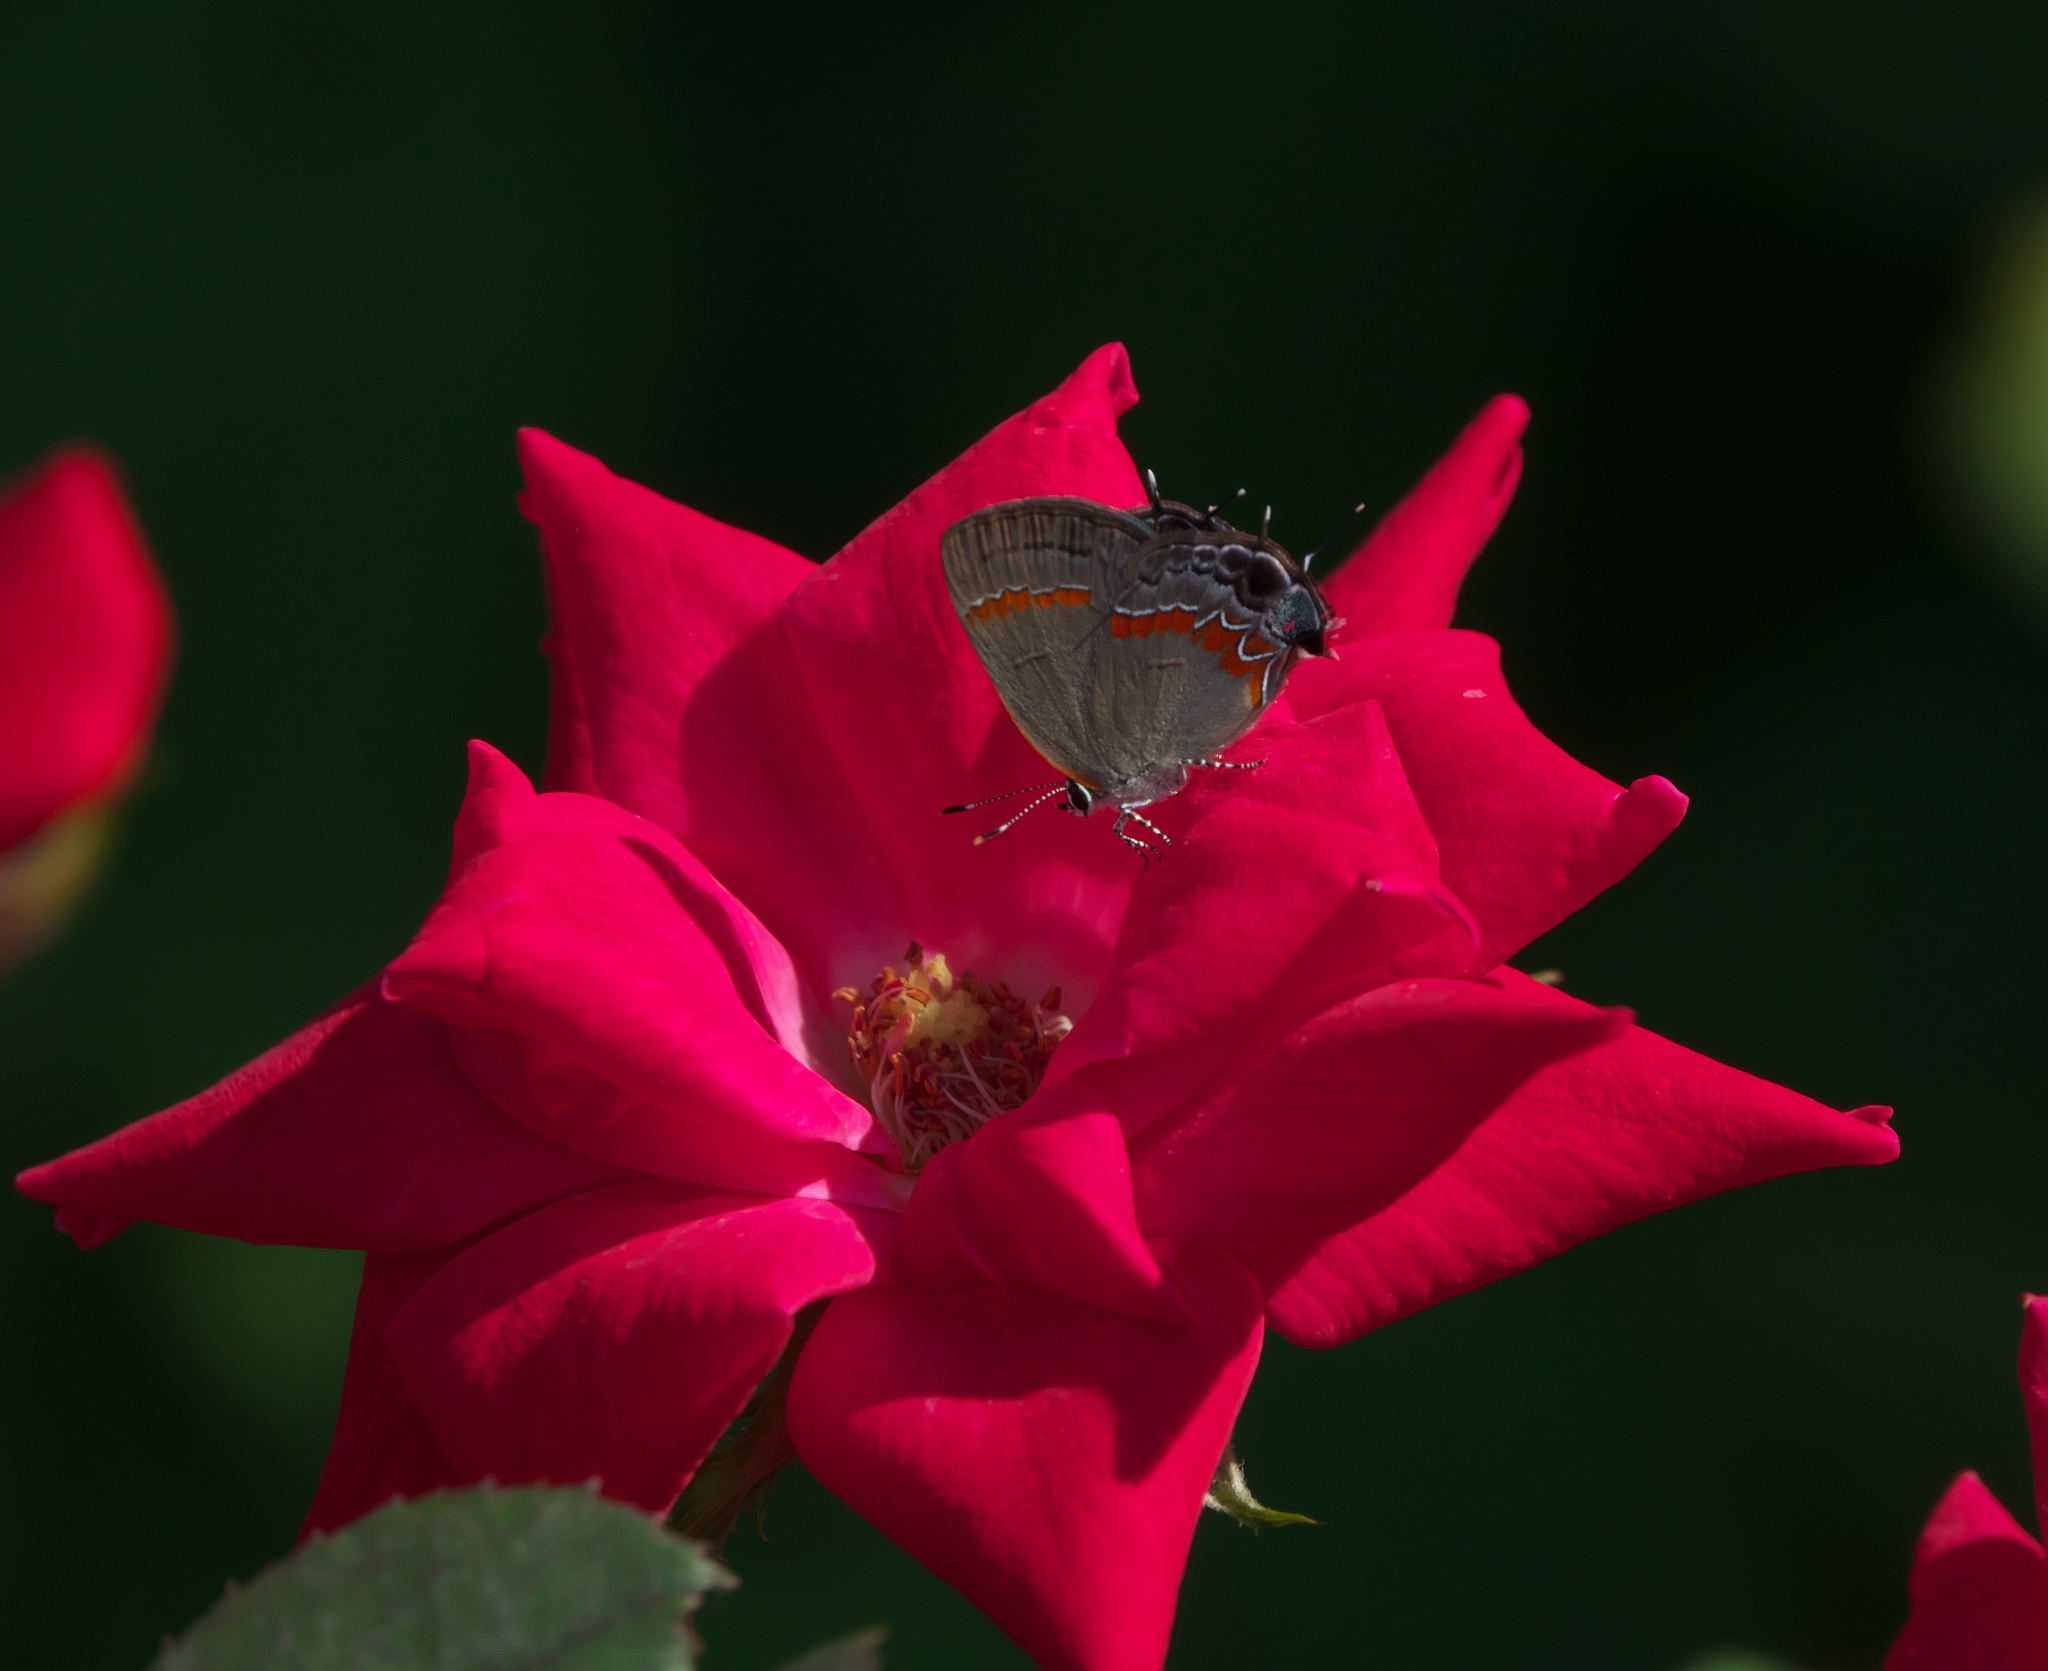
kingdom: Animalia
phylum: Arthropoda
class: Insecta
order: Lepidoptera
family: Lycaenidae
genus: Calycopis
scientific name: Calycopis cecrops
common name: Red-banded hairstreak
